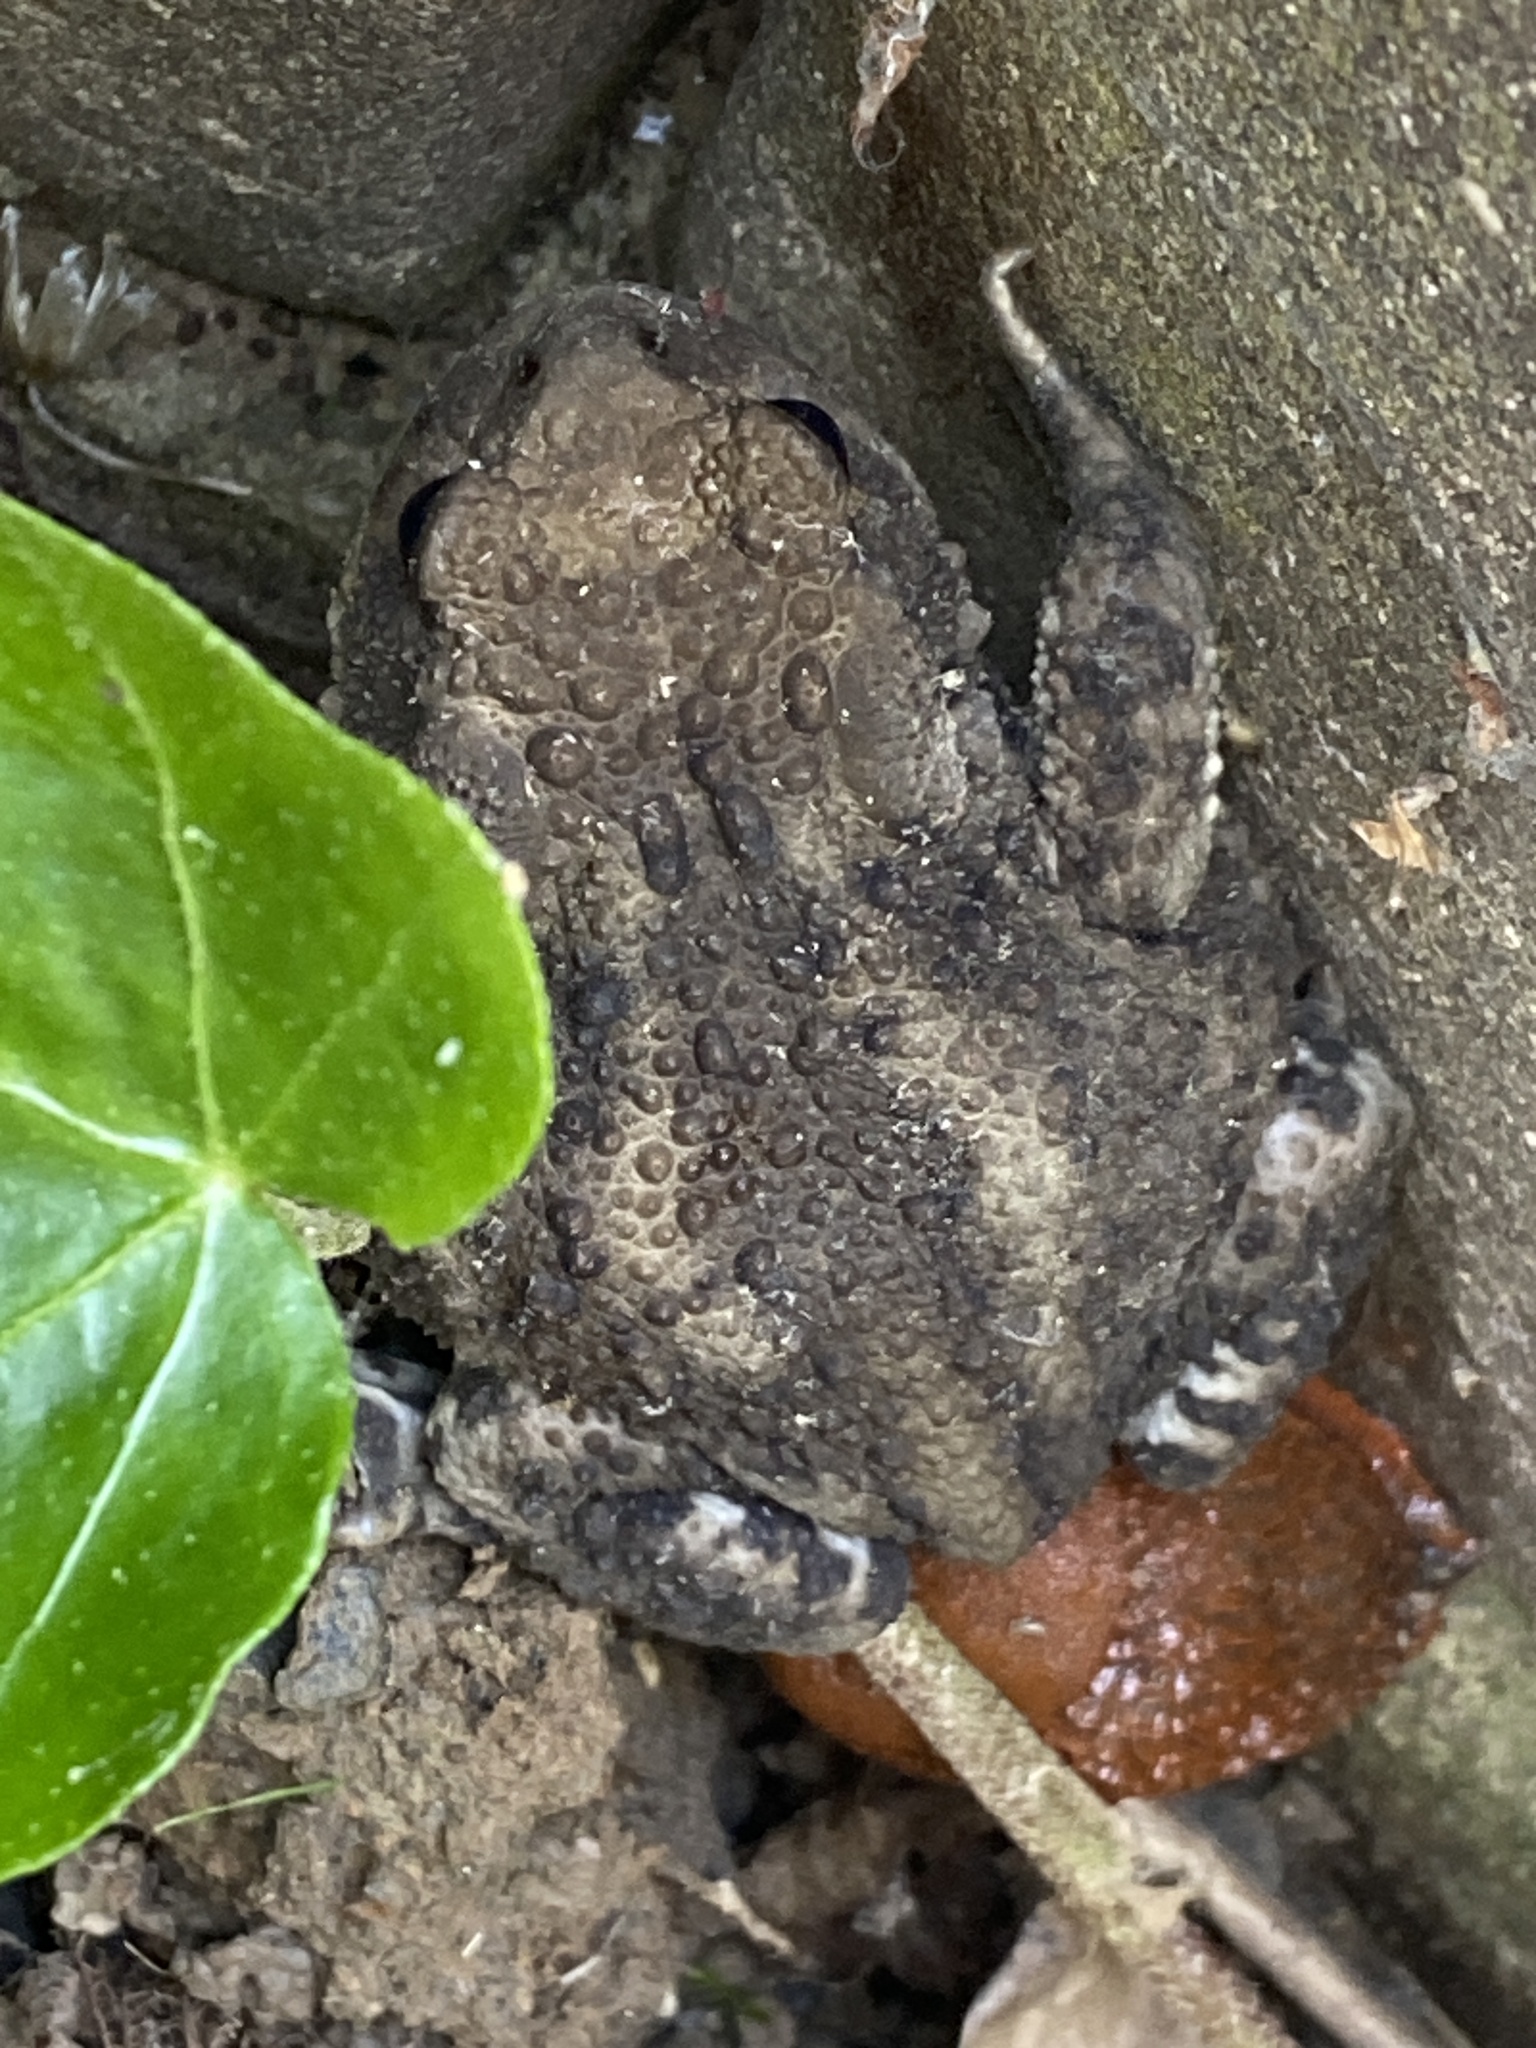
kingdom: Animalia
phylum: Chordata
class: Amphibia
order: Anura
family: Bufonidae
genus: Bufo
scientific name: Bufo bufo
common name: Common toad
